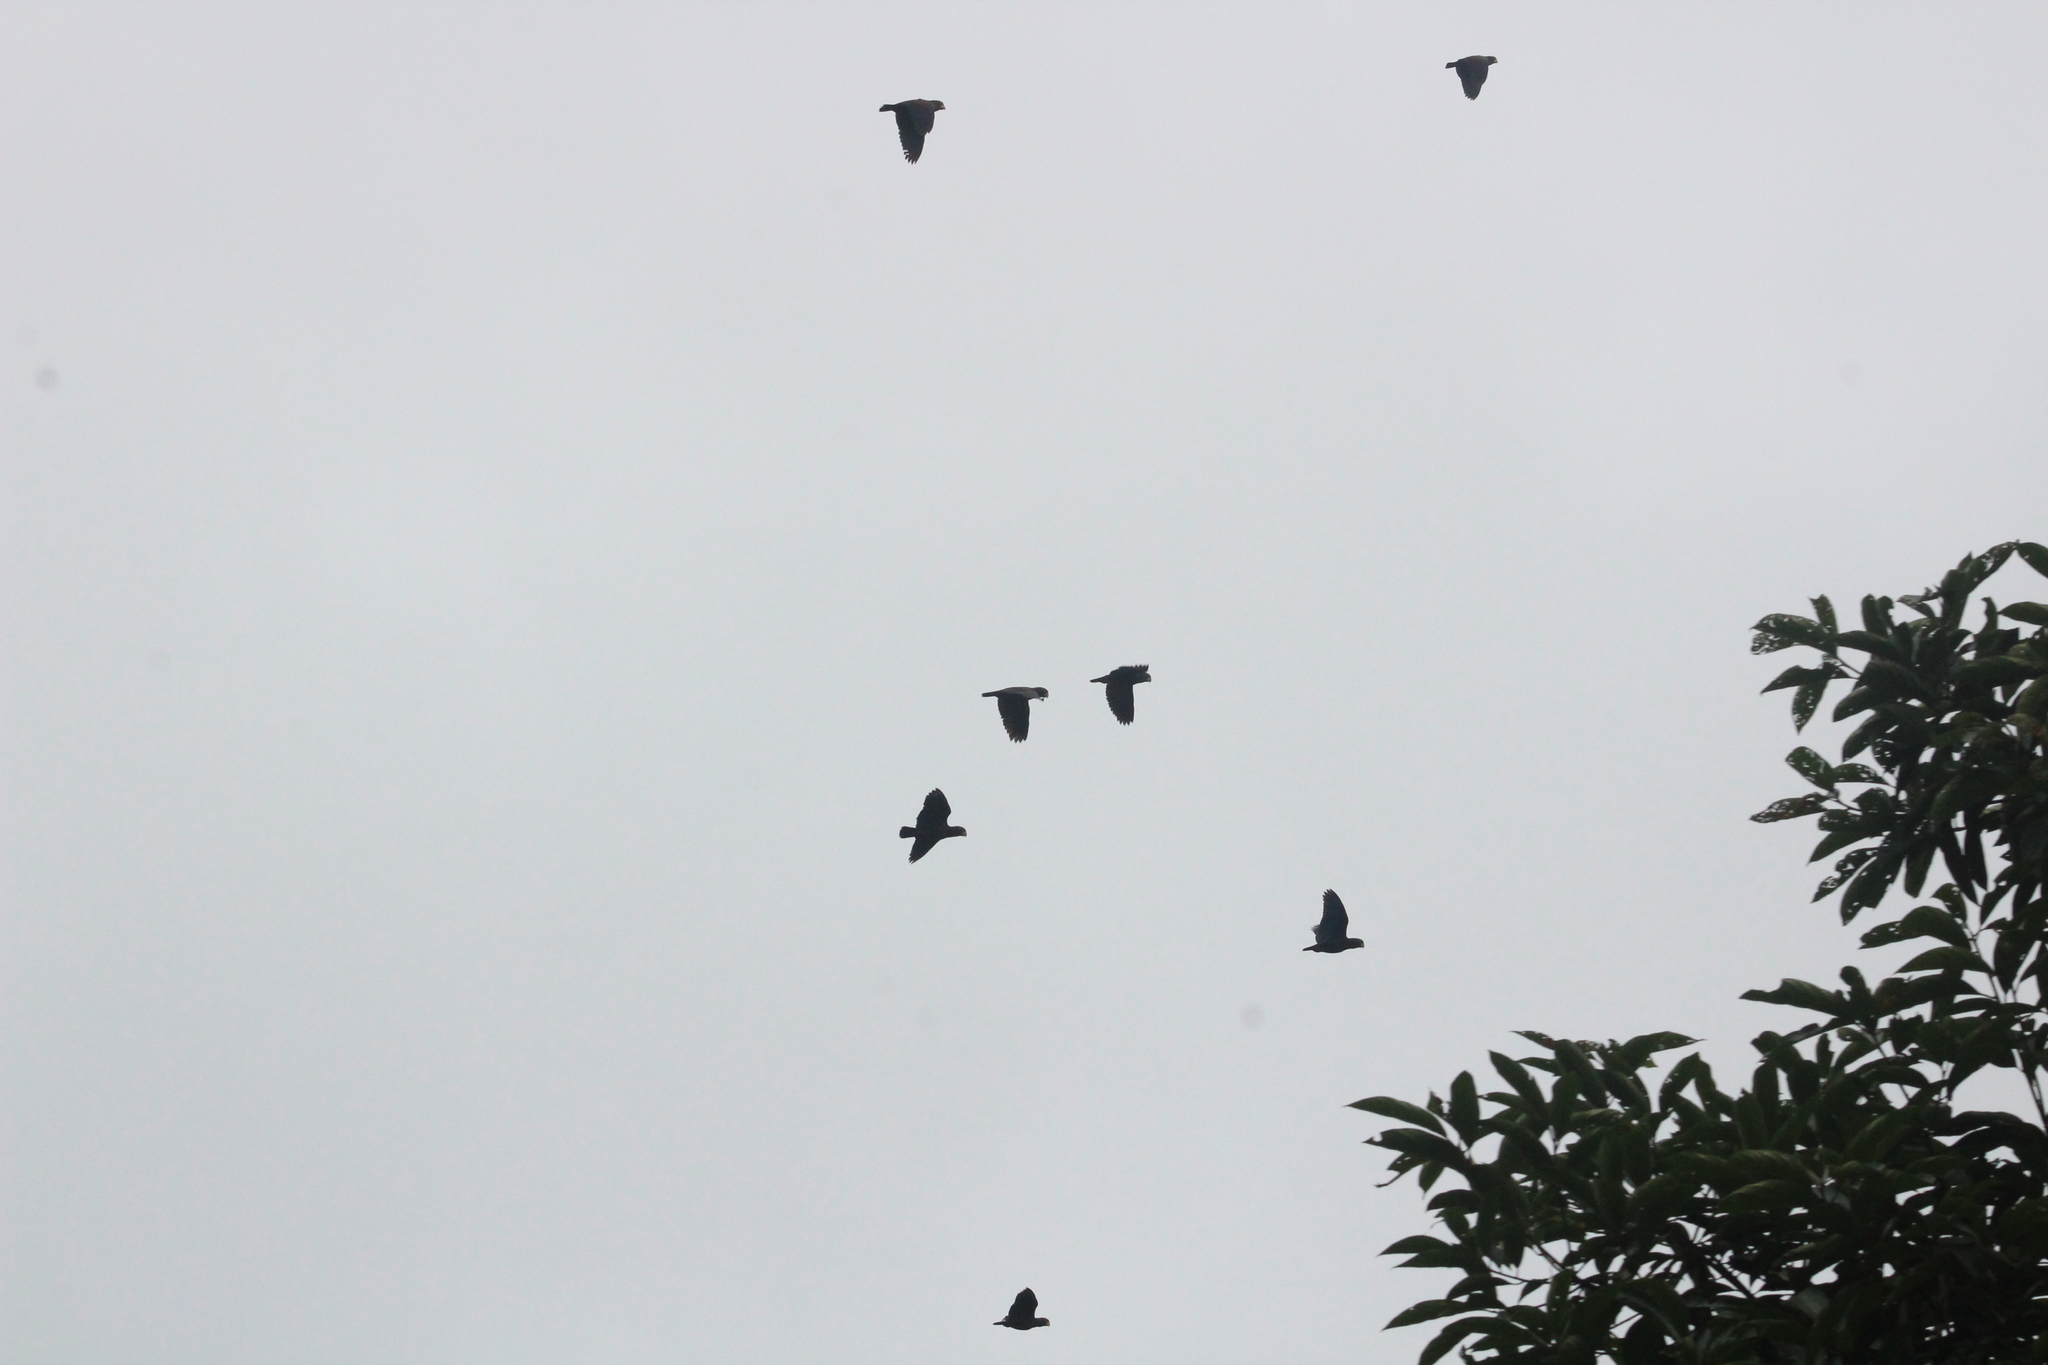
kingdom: Animalia
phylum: Chordata
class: Aves
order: Psittaciformes
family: Psittacidae
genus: Pionus
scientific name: Pionus chalcopterus
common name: Bronze-winged parrot
